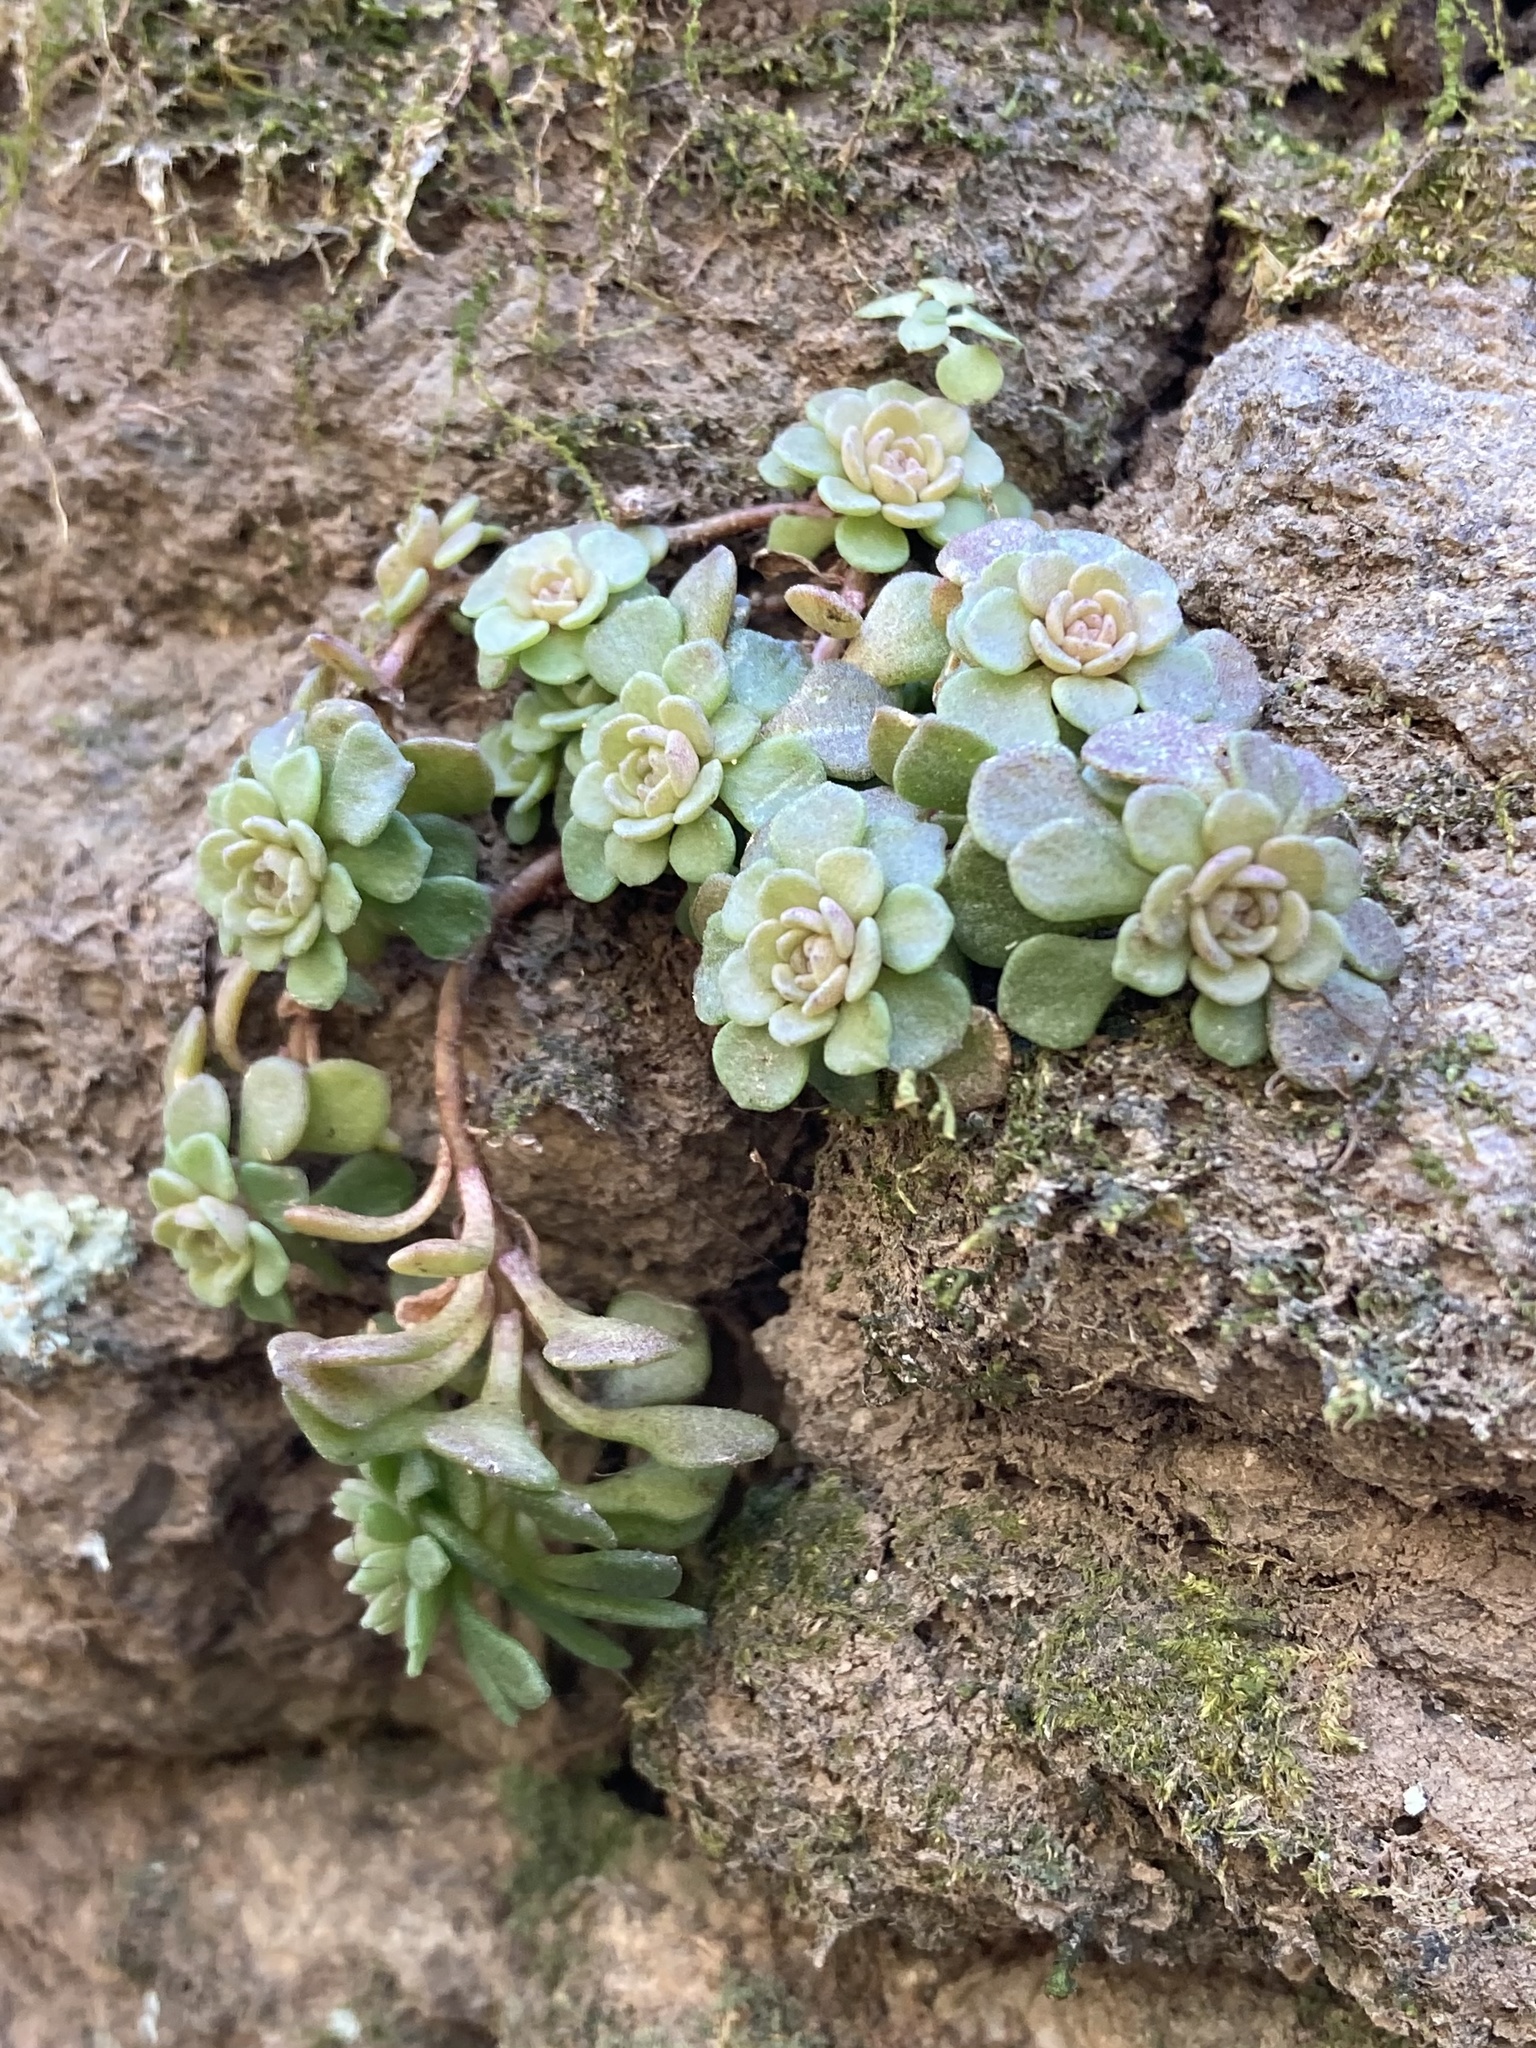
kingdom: Plantae
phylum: Tracheophyta
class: Magnoliopsida
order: Saxifragales
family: Crassulaceae
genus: Sedum
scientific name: Sedum glaucophyllum
